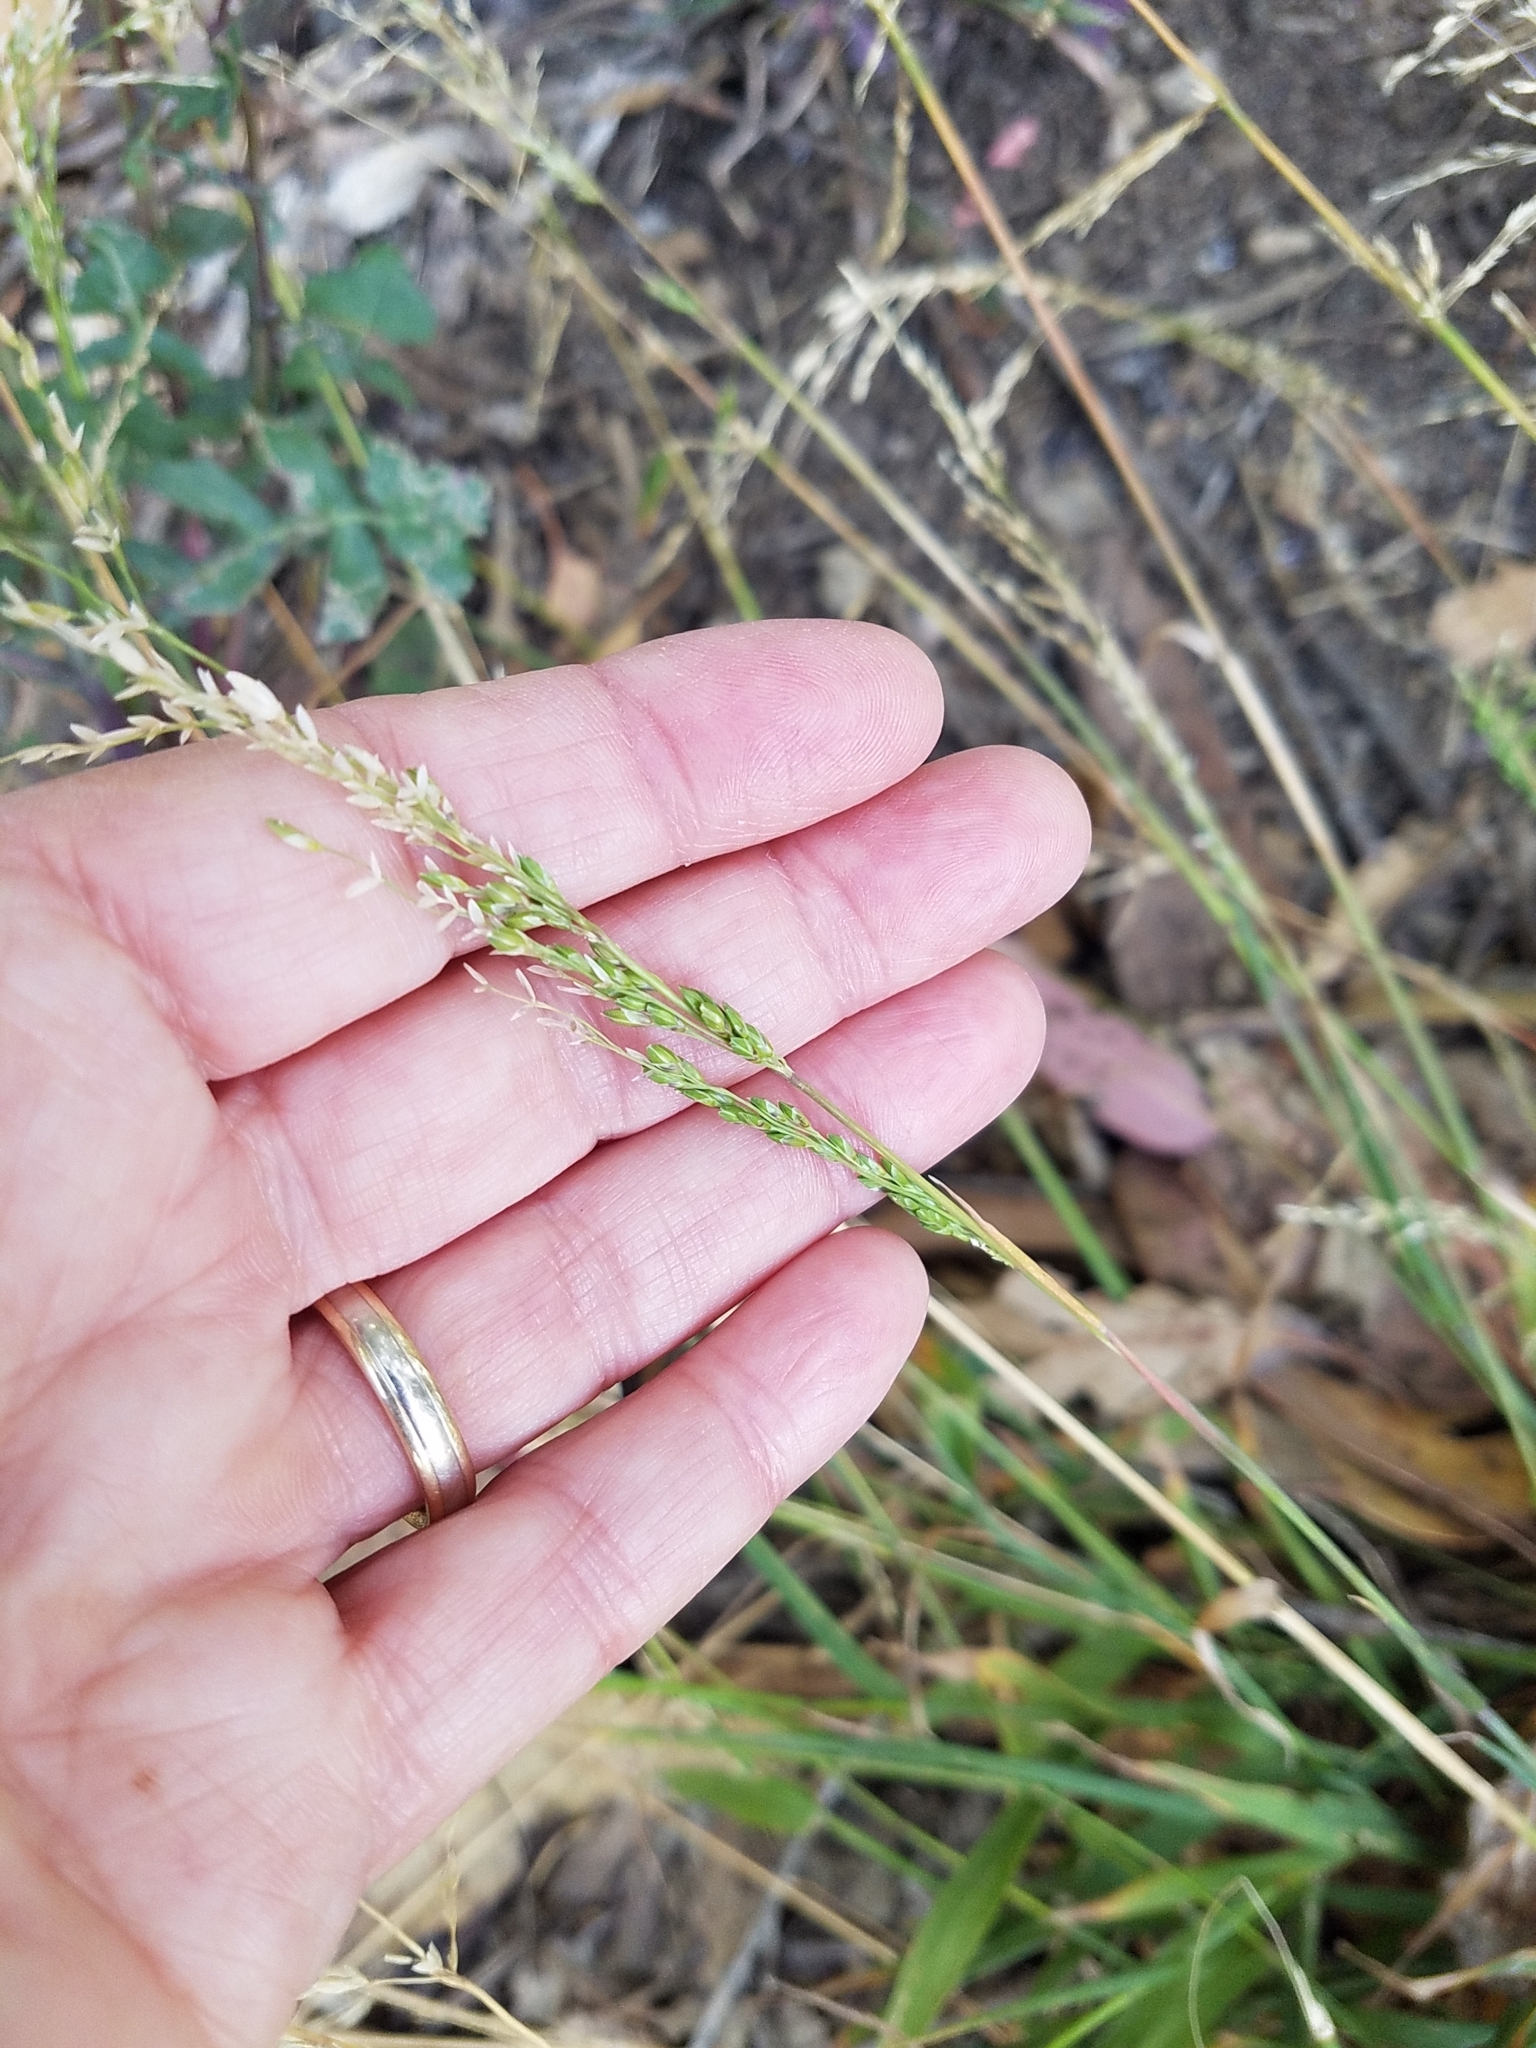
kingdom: Plantae
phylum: Tracheophyta
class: Liliopsida
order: Poales
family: Poaceae
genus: Ehrharta
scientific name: Ehrharta erecta
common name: Panic veldtgrass
